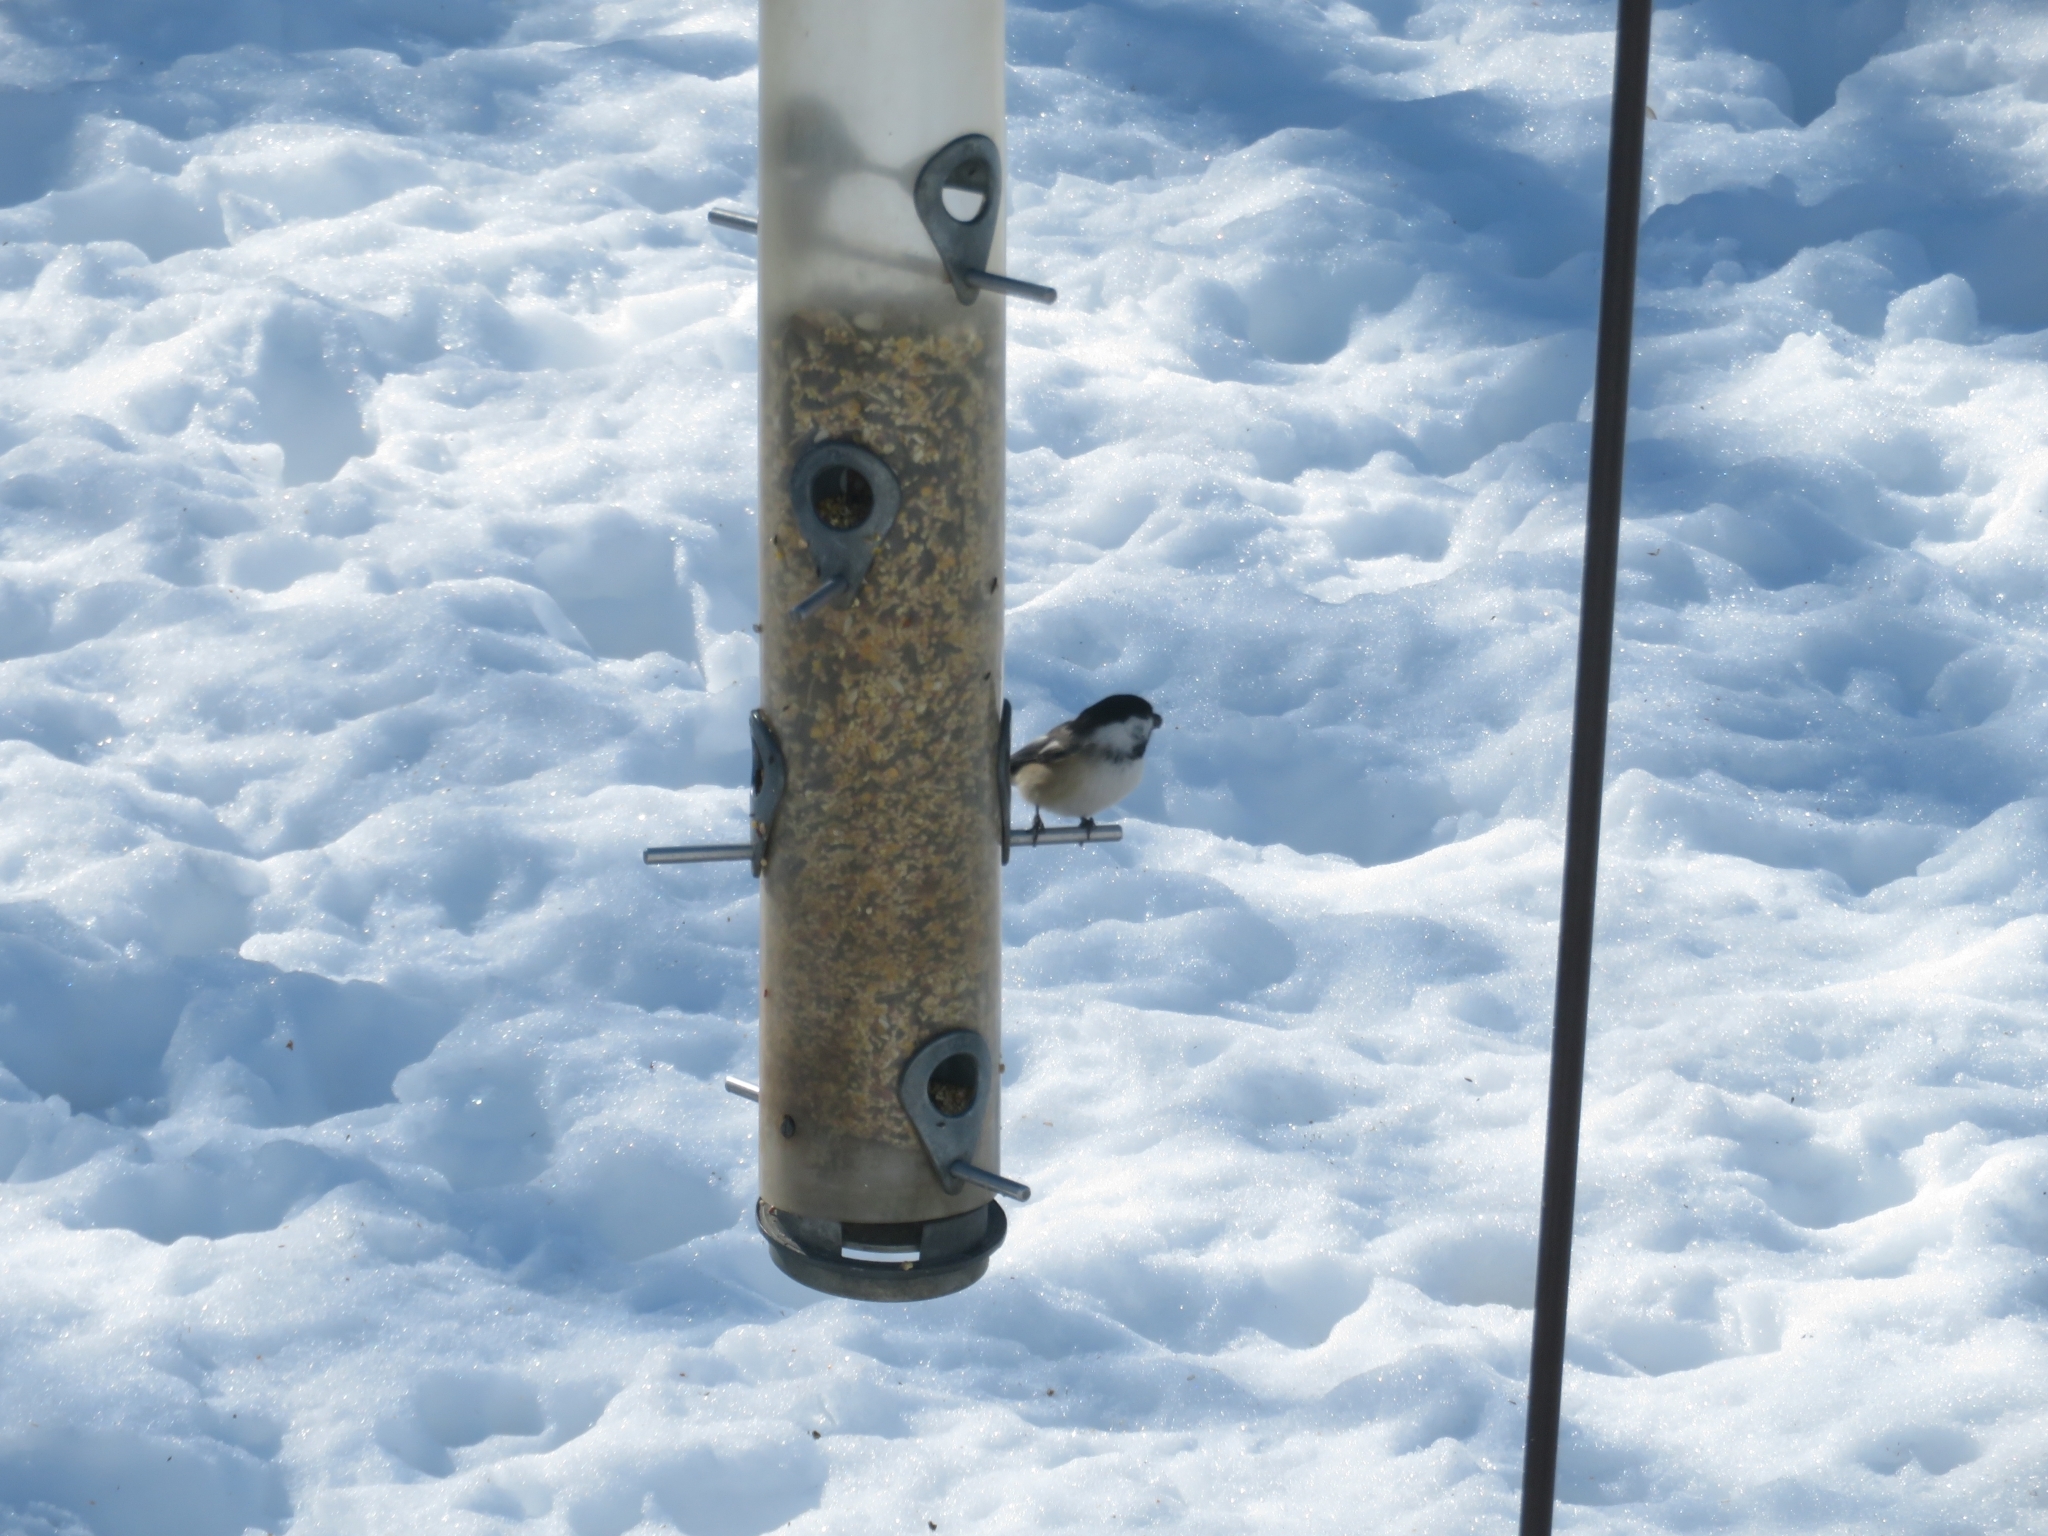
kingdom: Animalia
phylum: Chordata
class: Aves
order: Passeriformes
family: Paridae
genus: Poecile
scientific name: Poecile atricapillus
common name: Black-capped chickadee
